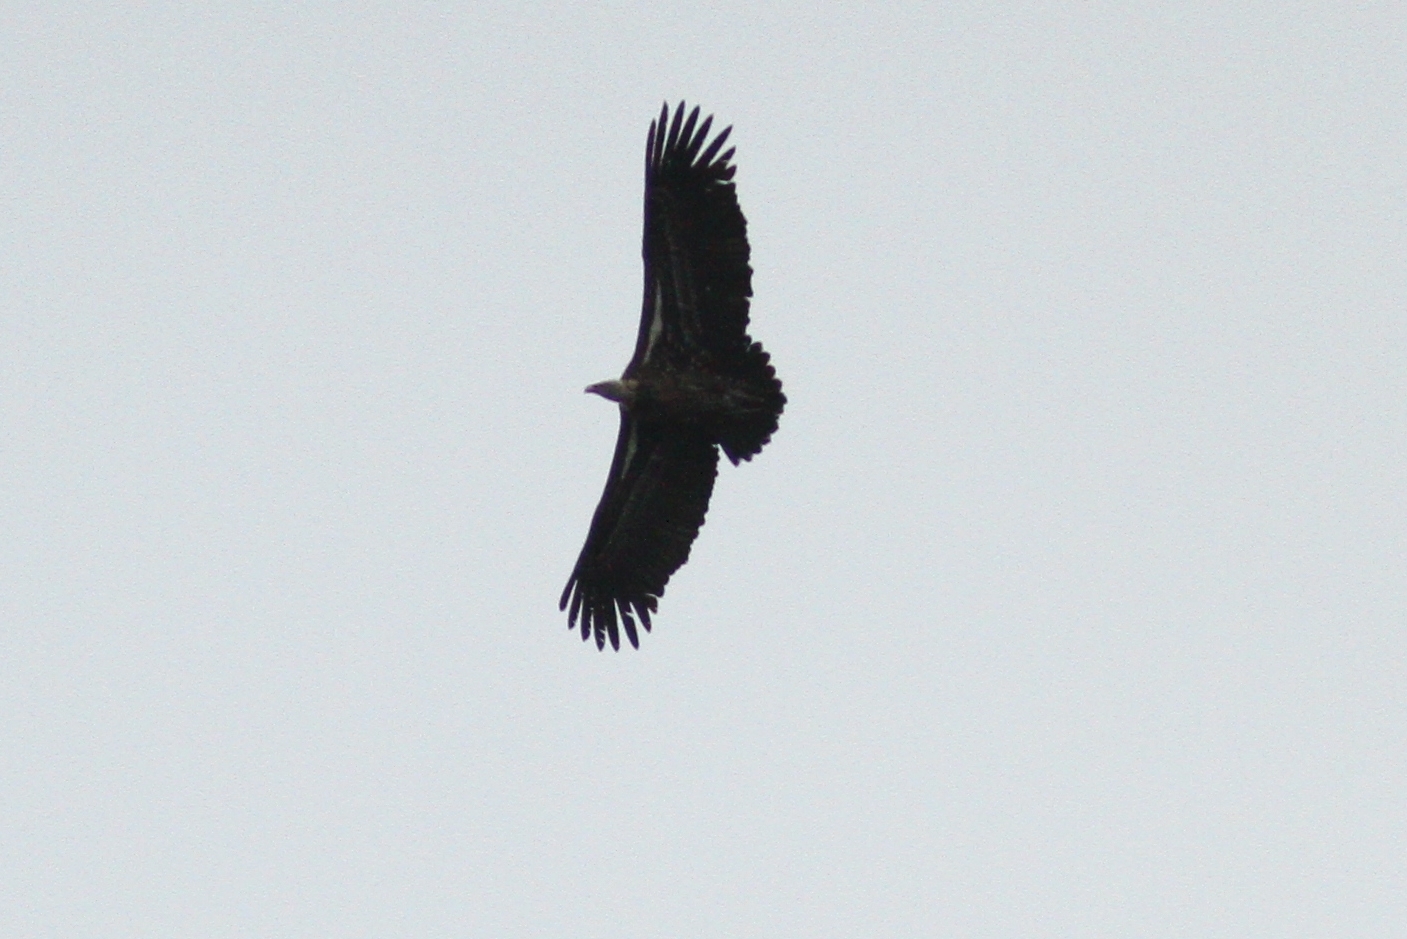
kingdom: Animalia
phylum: Chordata
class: Aves
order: Accipitriformes
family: Accipitridae
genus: Gyps
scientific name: Gyps rueppellii
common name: Rüppell's vulture
